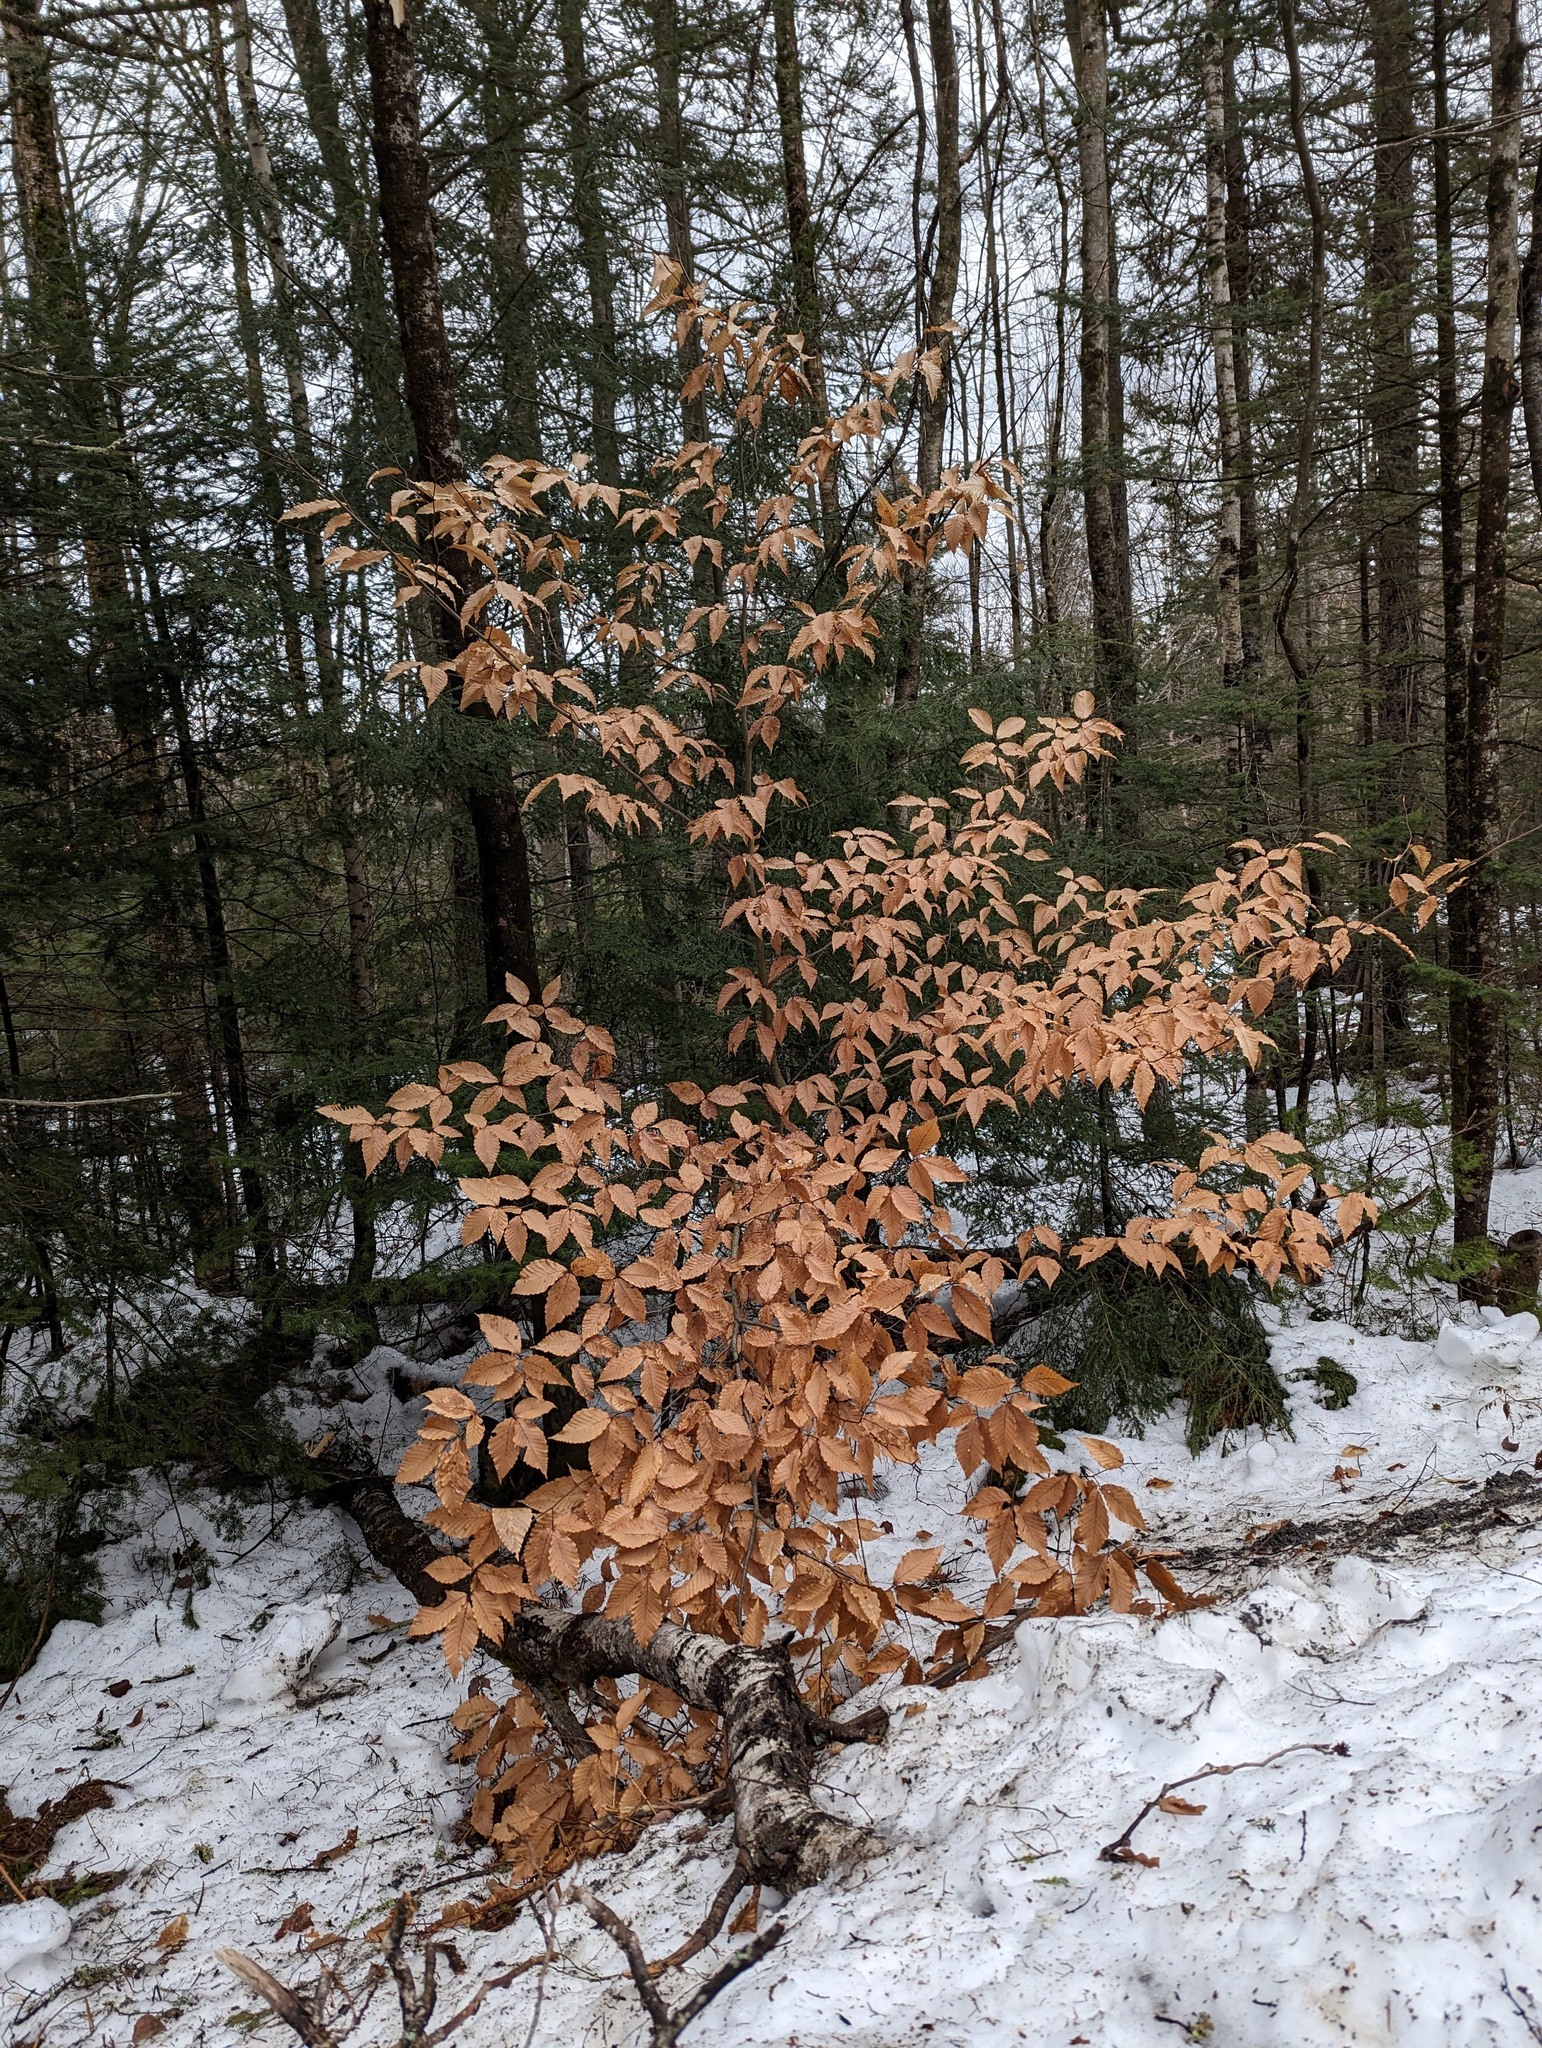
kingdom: Plantae
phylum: Tracheophyta
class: Magnoliopsida
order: Fagales
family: Fagaceae
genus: Fagus
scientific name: Fagus grandifolia
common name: American beech
